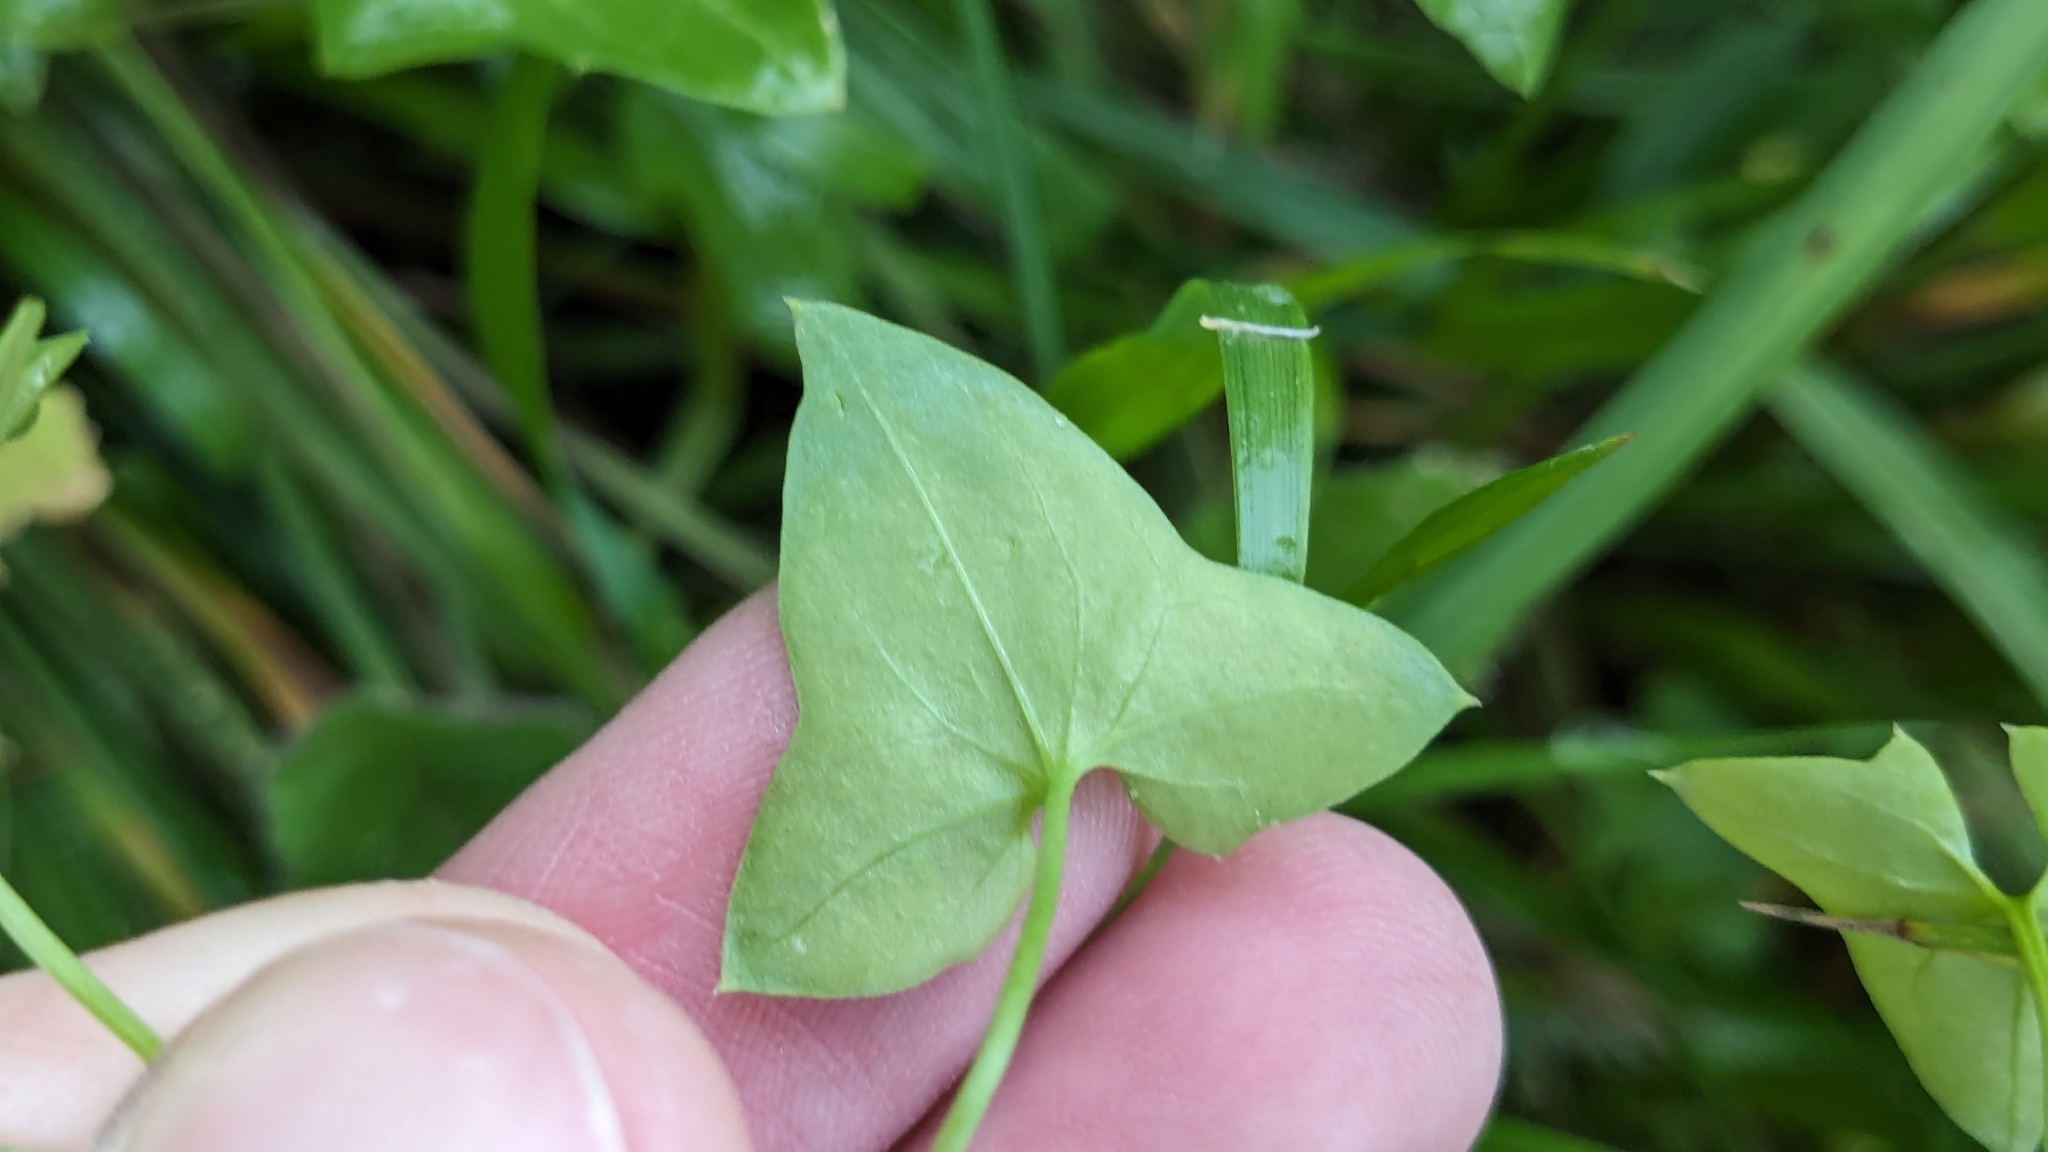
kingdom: Plantae
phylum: Tracheophyta
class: Magnoliopsida
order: Lamiales
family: Plantaginaceae
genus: Maurandella
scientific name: Maurandella antirrhiniflora
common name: Violet twining-snapdragon
